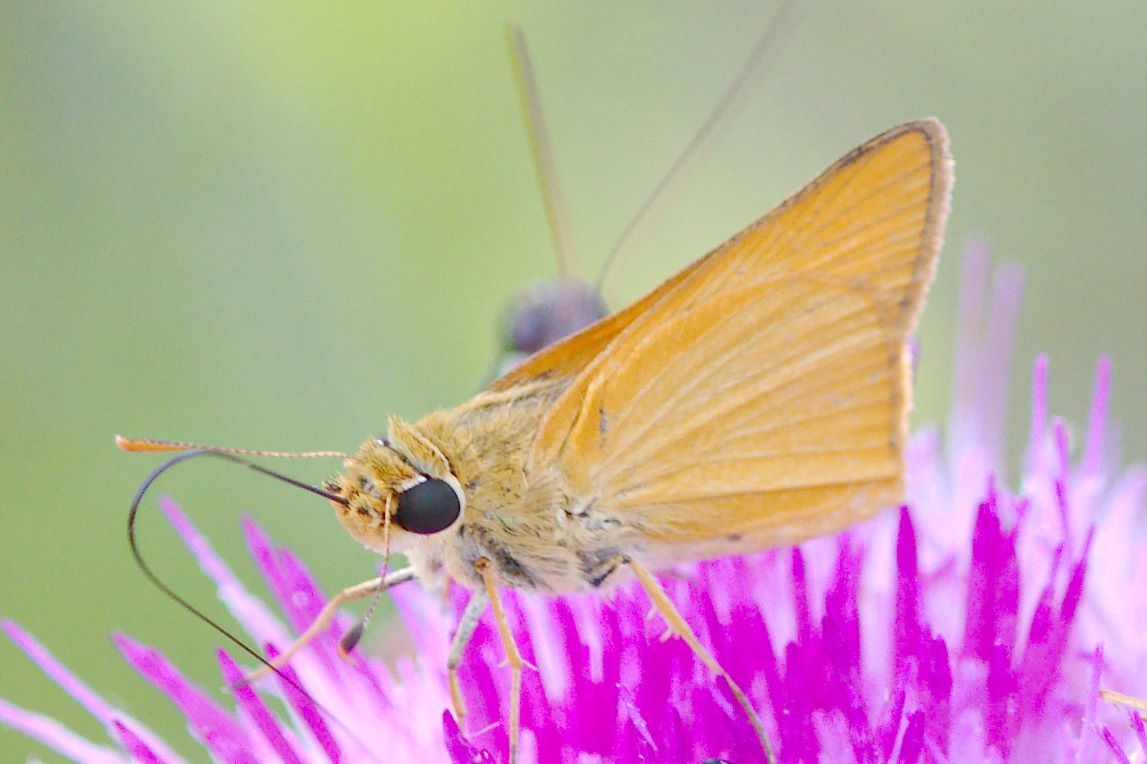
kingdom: Animalia
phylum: Arthropoda
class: Insecta
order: Lepidoptera
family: Hesperiidae
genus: Atrytone
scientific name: Atrytone delaware
